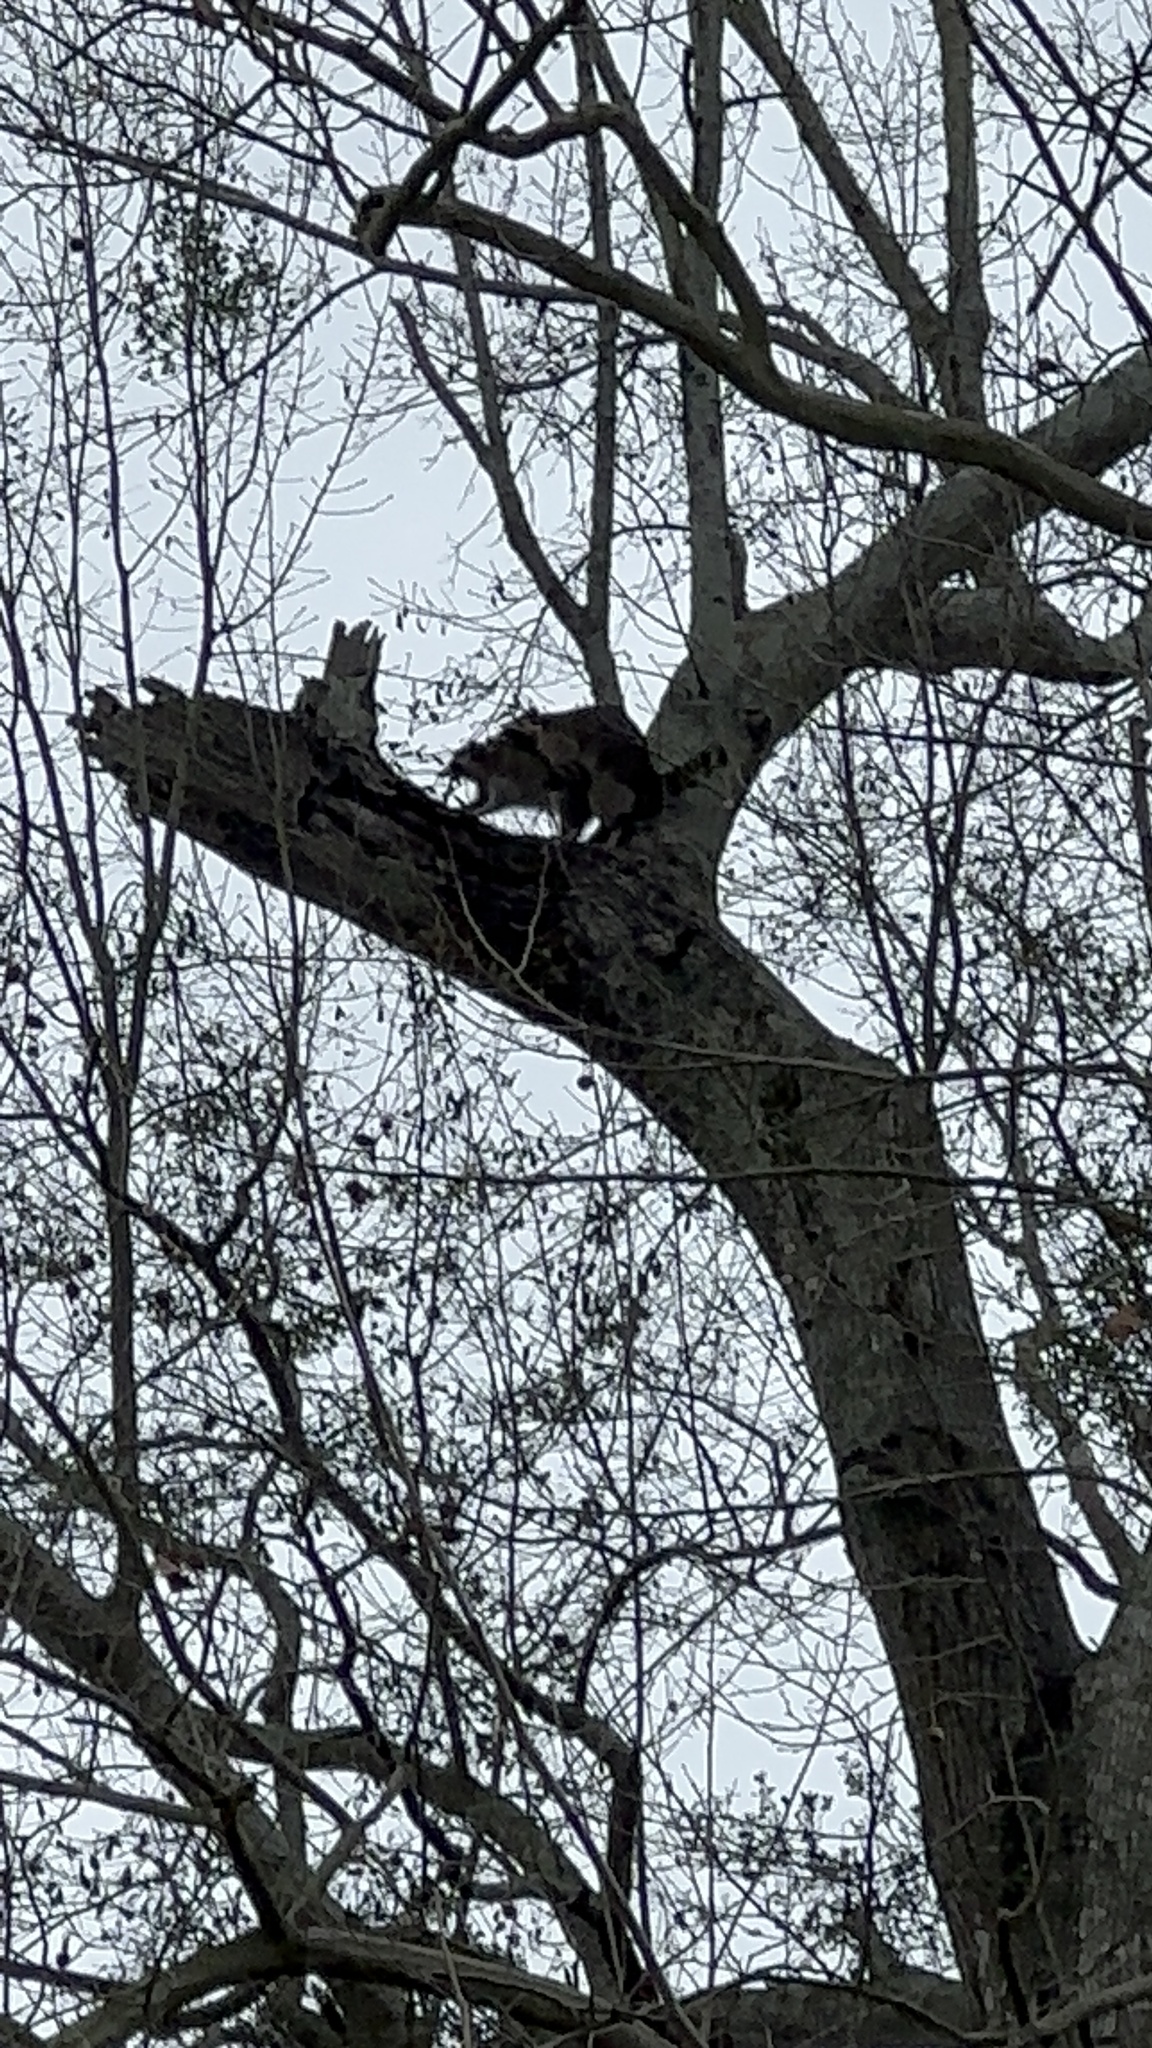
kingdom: Animalia
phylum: Chordata
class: Mammalia
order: Carnivora
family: Procyonidae
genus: Procyon
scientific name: Procyon lotor
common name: Raccoon
